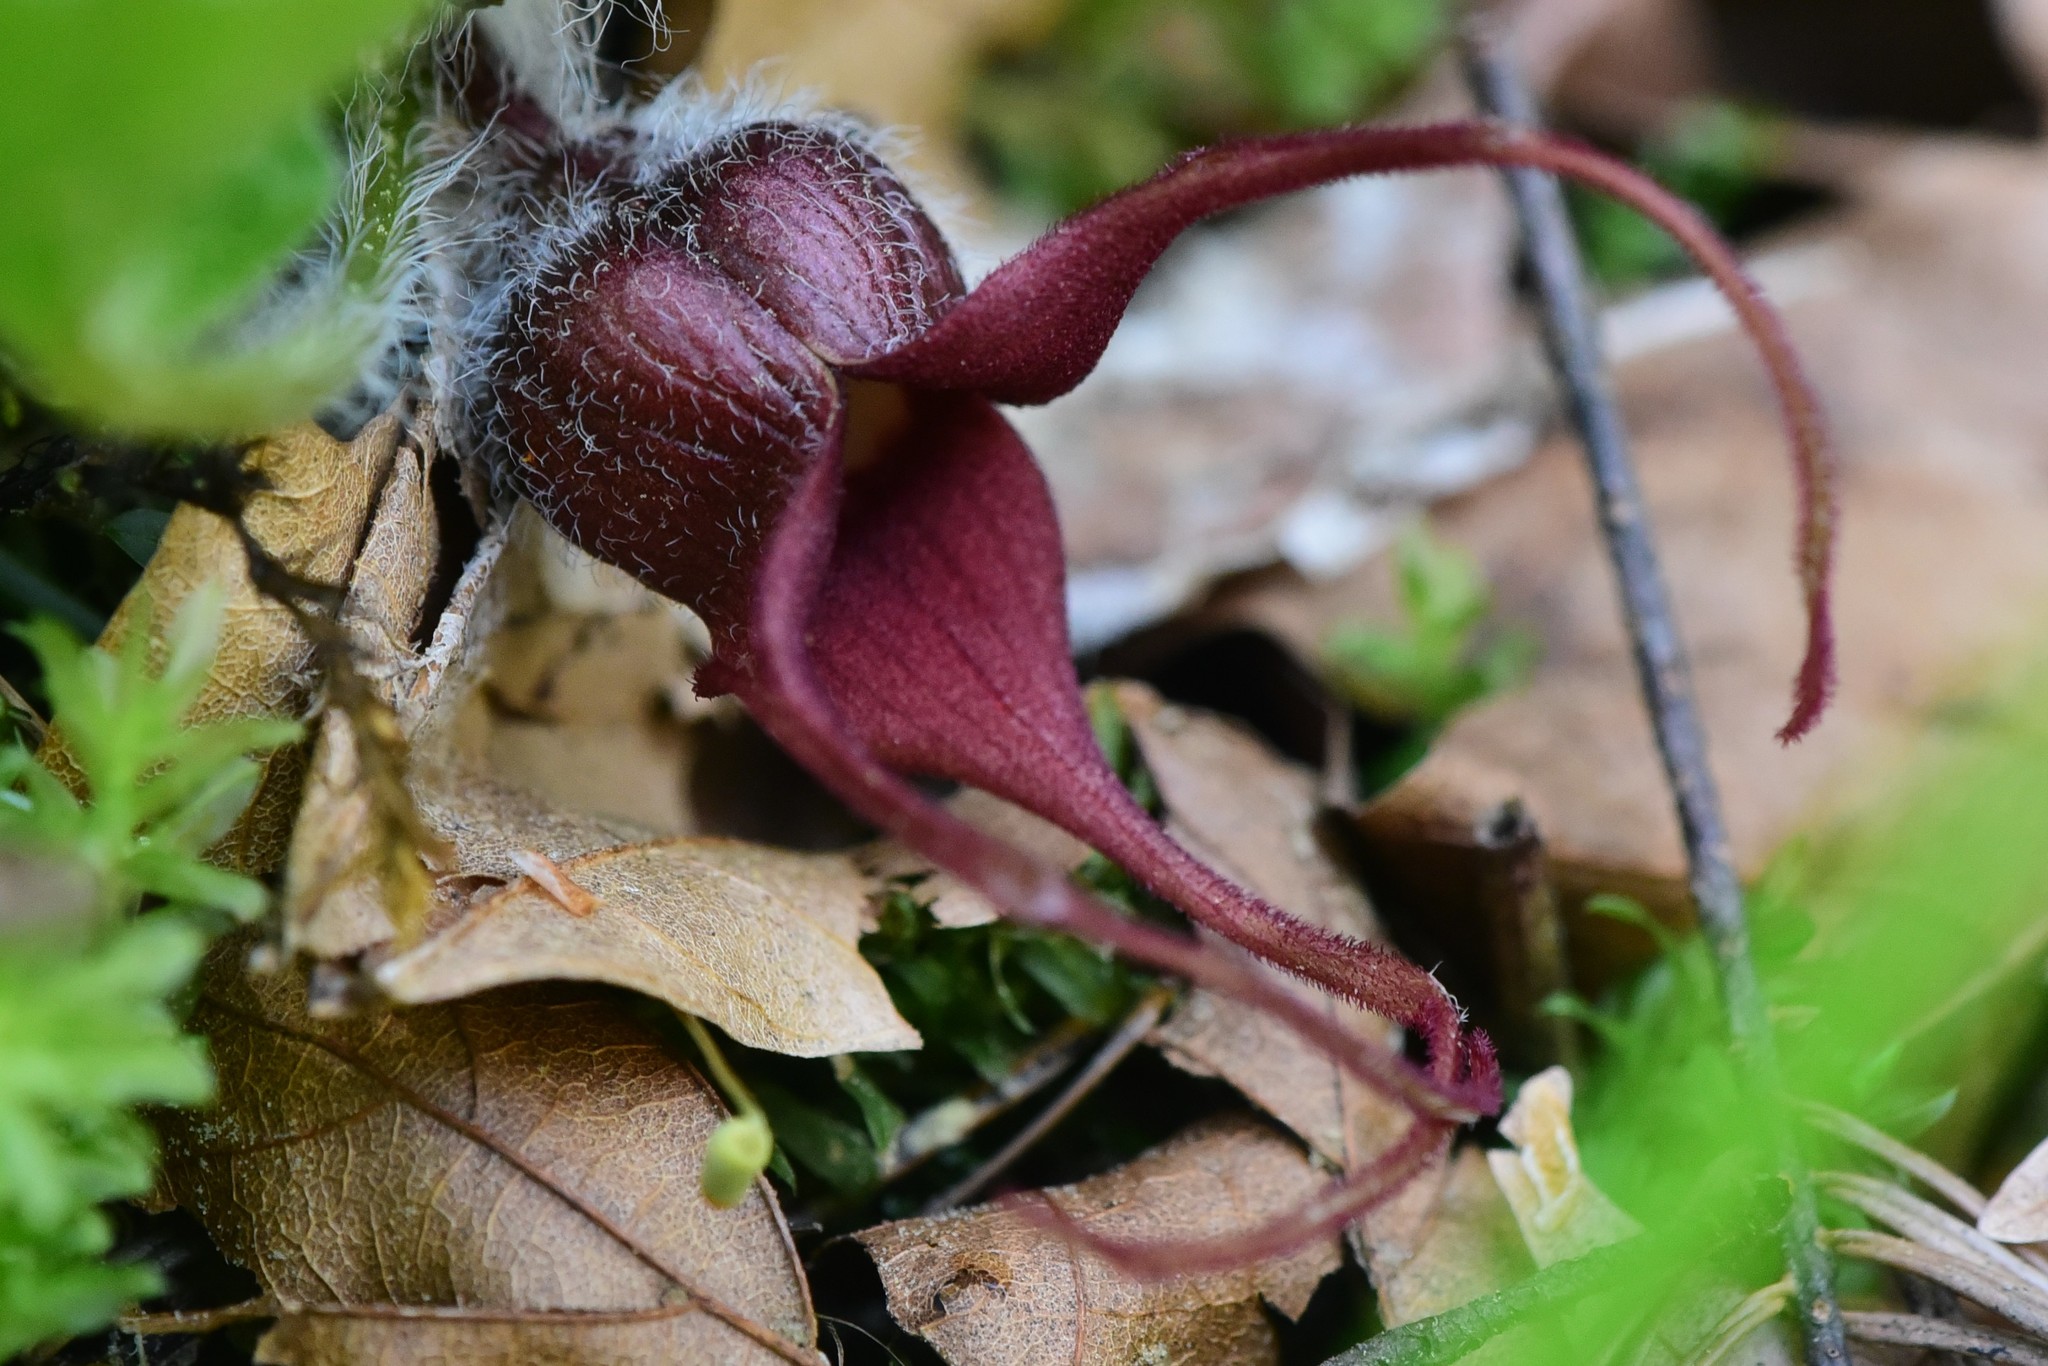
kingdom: Plantae
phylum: Tracheophyta
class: Magnoliopsida
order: Piperales
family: Aristolochiaceae
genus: Asarum
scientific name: Asarum caudatum
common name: Wild ginger
